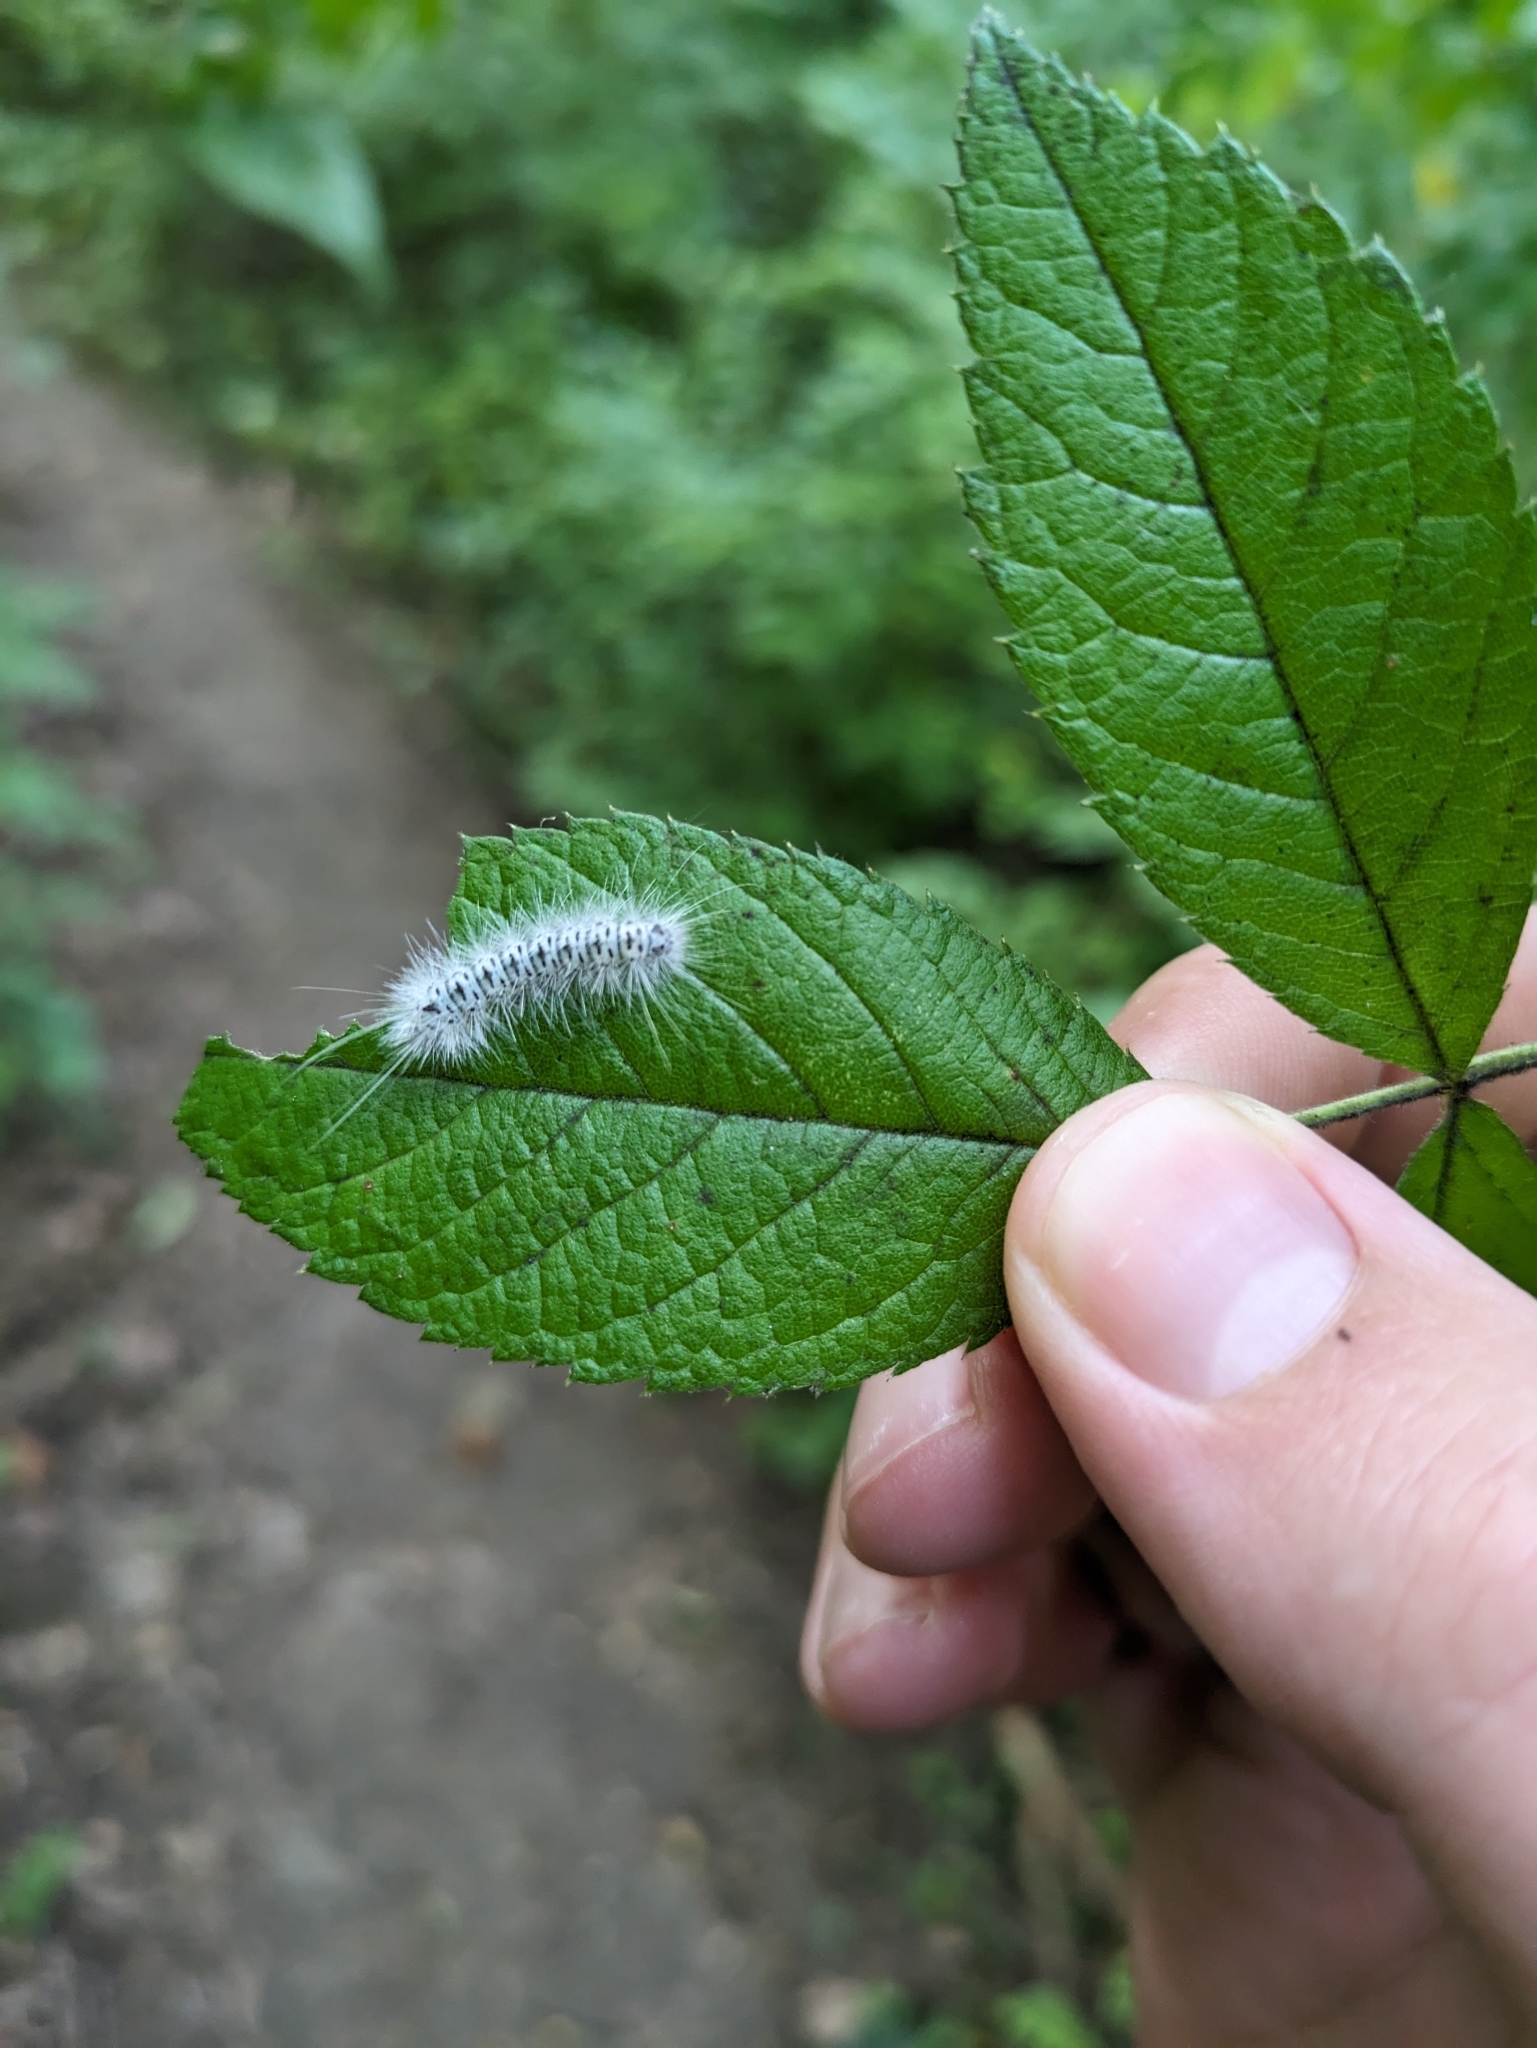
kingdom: Animalia
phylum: Arthropoda
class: Insecta
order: Lepidoptera
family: Erebidae
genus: Lophocampa
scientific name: Lophocampa caryae
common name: Hickory tussock moth
